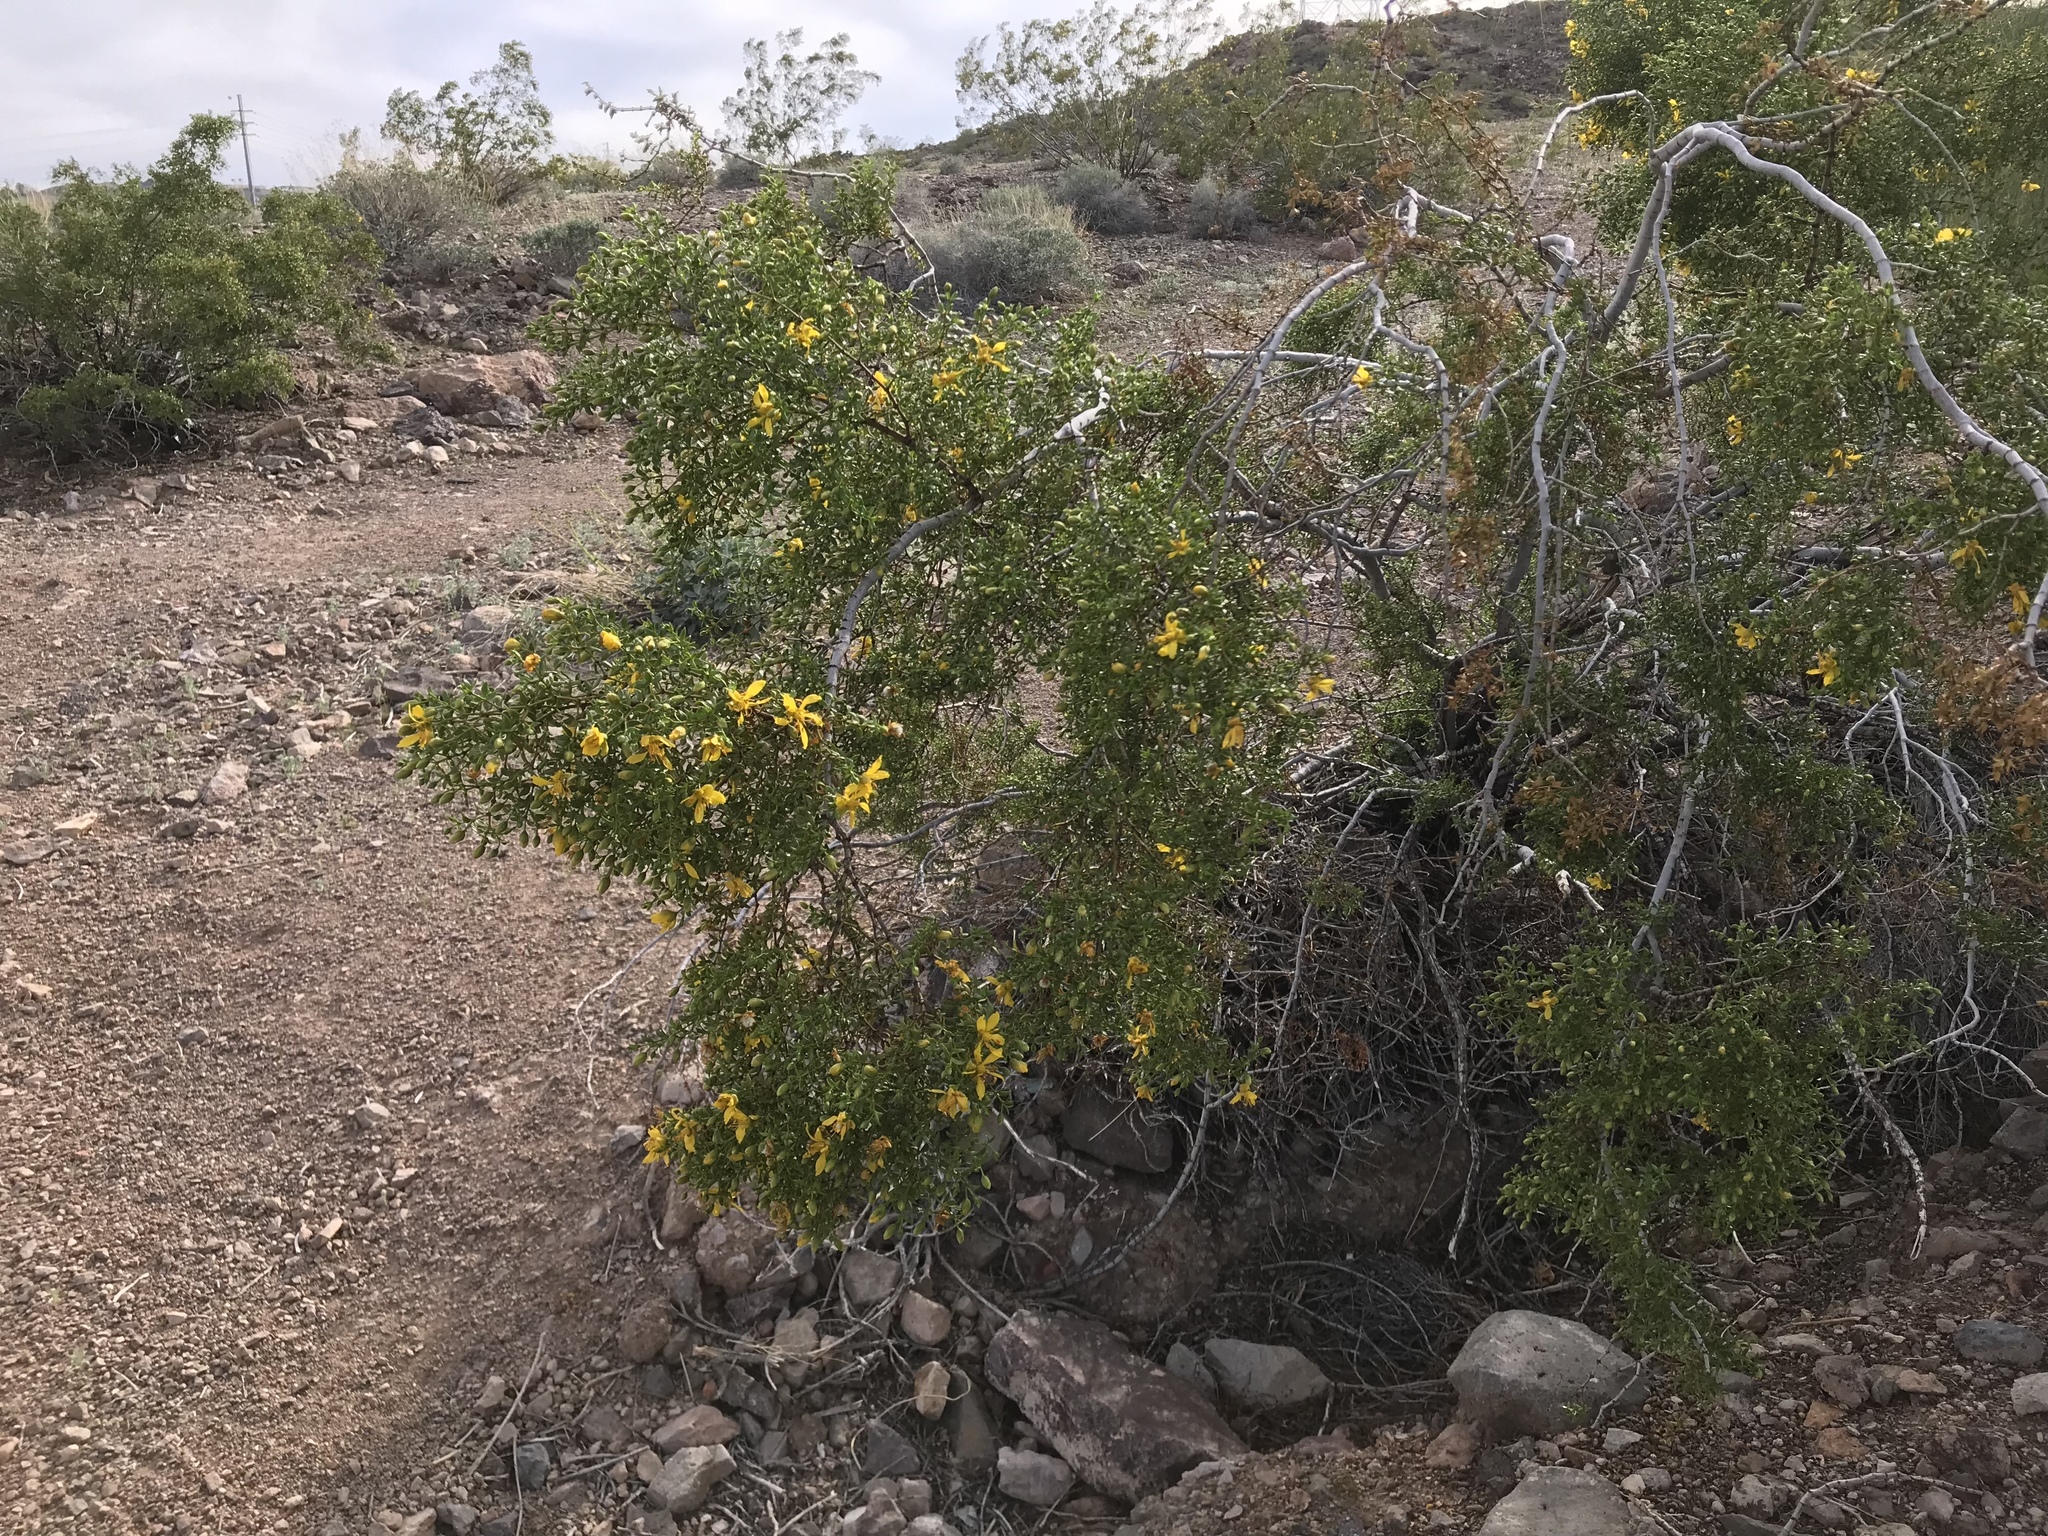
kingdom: Plantae
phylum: Tracheophyta
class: Magnoliopsida
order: Zygophyllales
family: Zygophyllaceae
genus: Larrea
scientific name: Larrea tridentata
